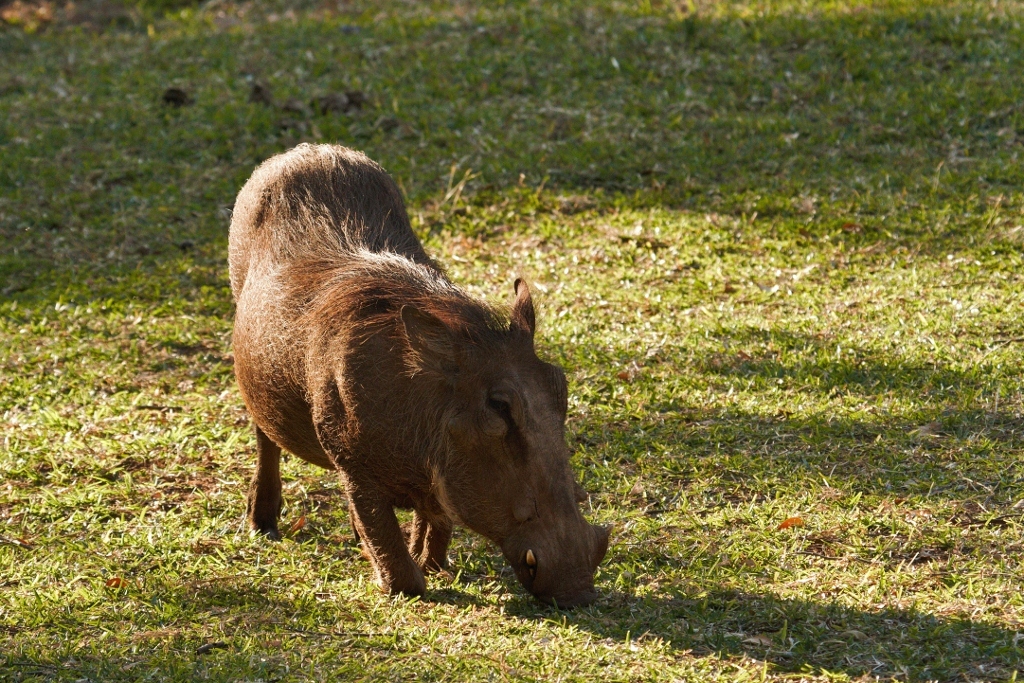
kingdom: Animalia
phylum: Chordata
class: Mammalia
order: Artiodactyla
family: Suidae
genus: Phacochoerus
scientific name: Phacochoerus africanus
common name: Common warthog
